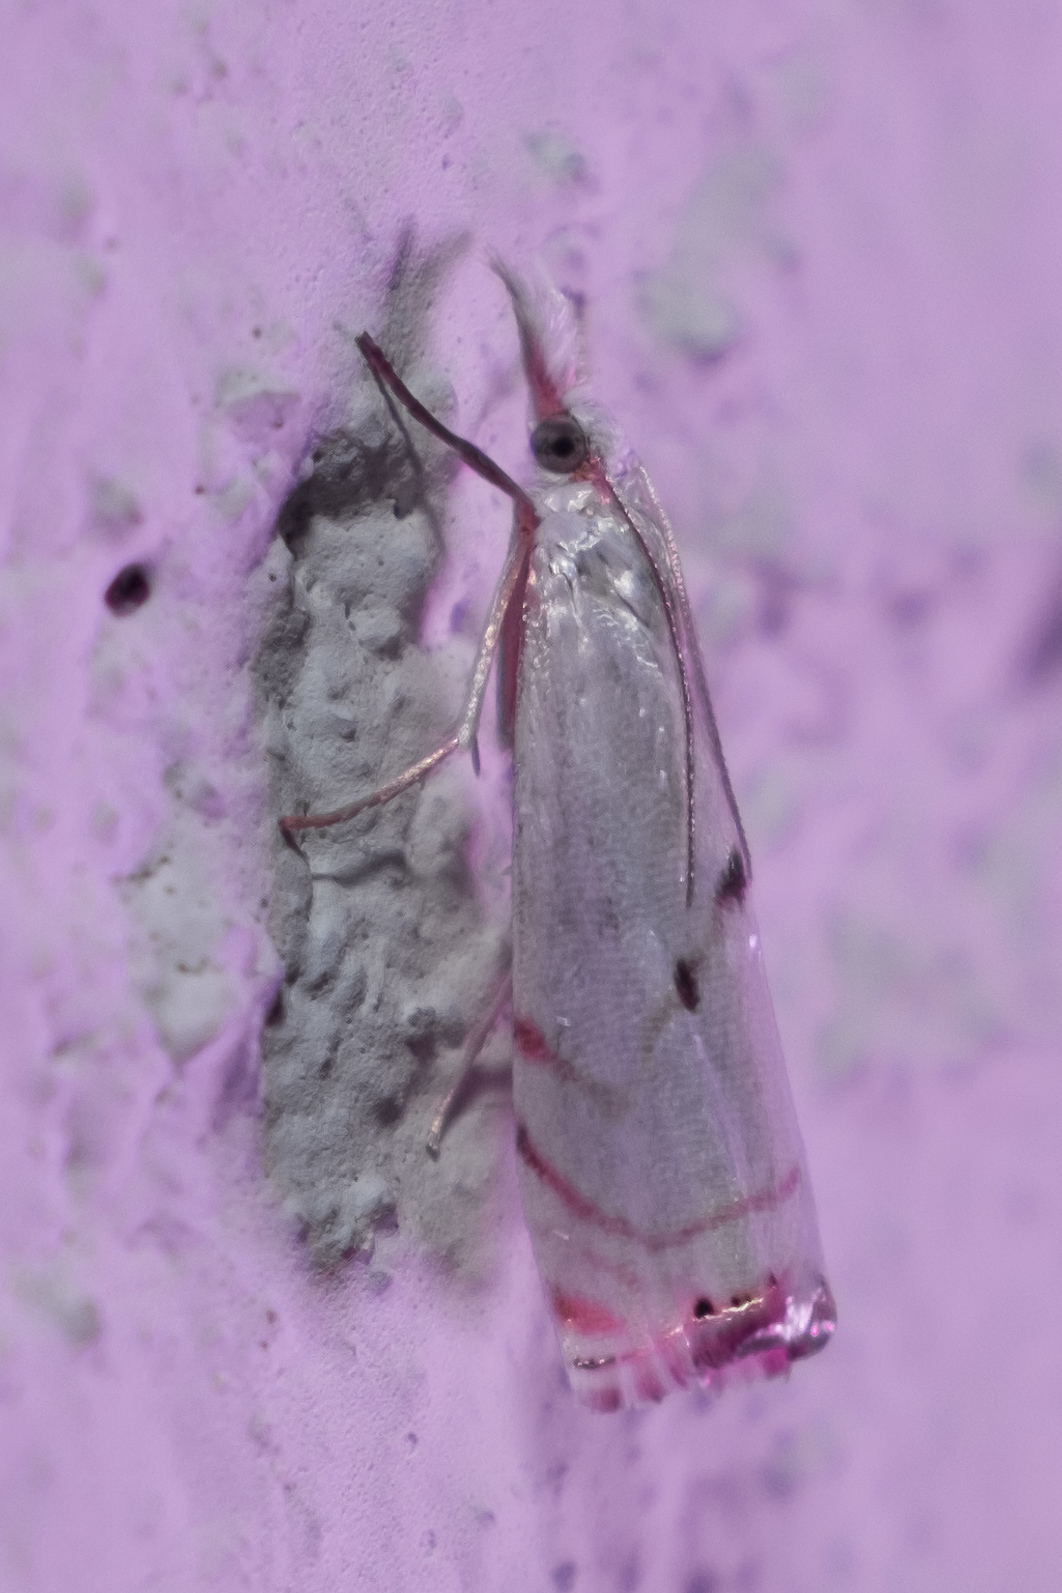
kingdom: Animalia
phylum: Arthropoda
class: Insecta
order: Lepidoptera
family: Crambidae
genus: Microcrambus
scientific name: Microcrambus biguttellus
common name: Gold-stripe grass-veneer moth
